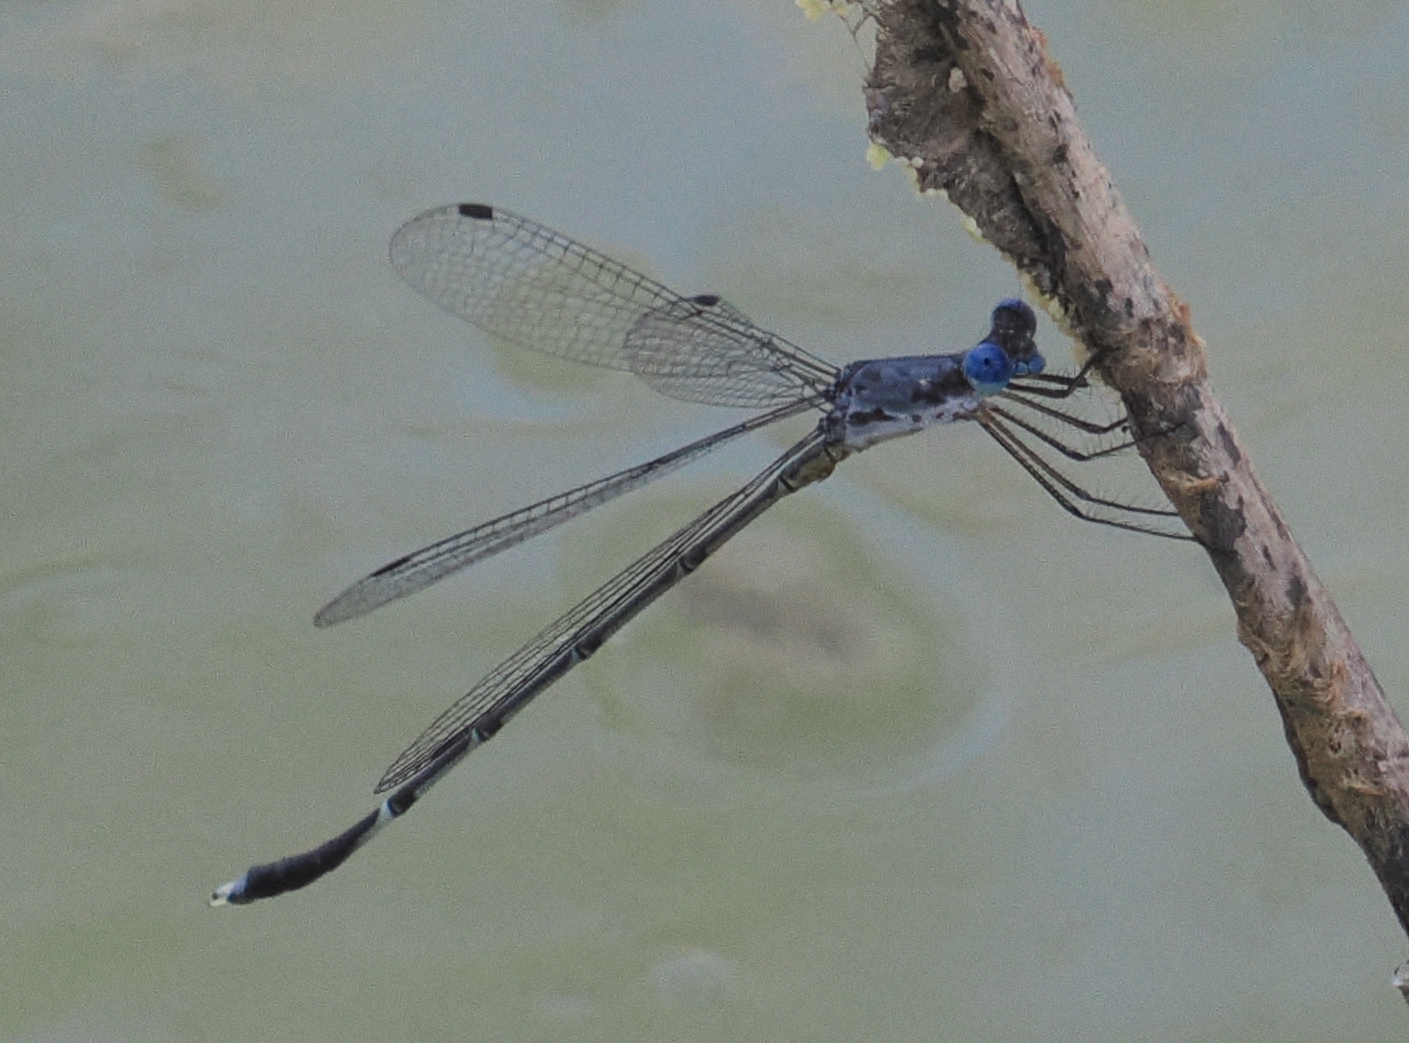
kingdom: Animalia
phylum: Arthropoda
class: Insecta
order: Odonata
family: Lestidae
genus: Lestes
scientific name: Lestes dorothea
